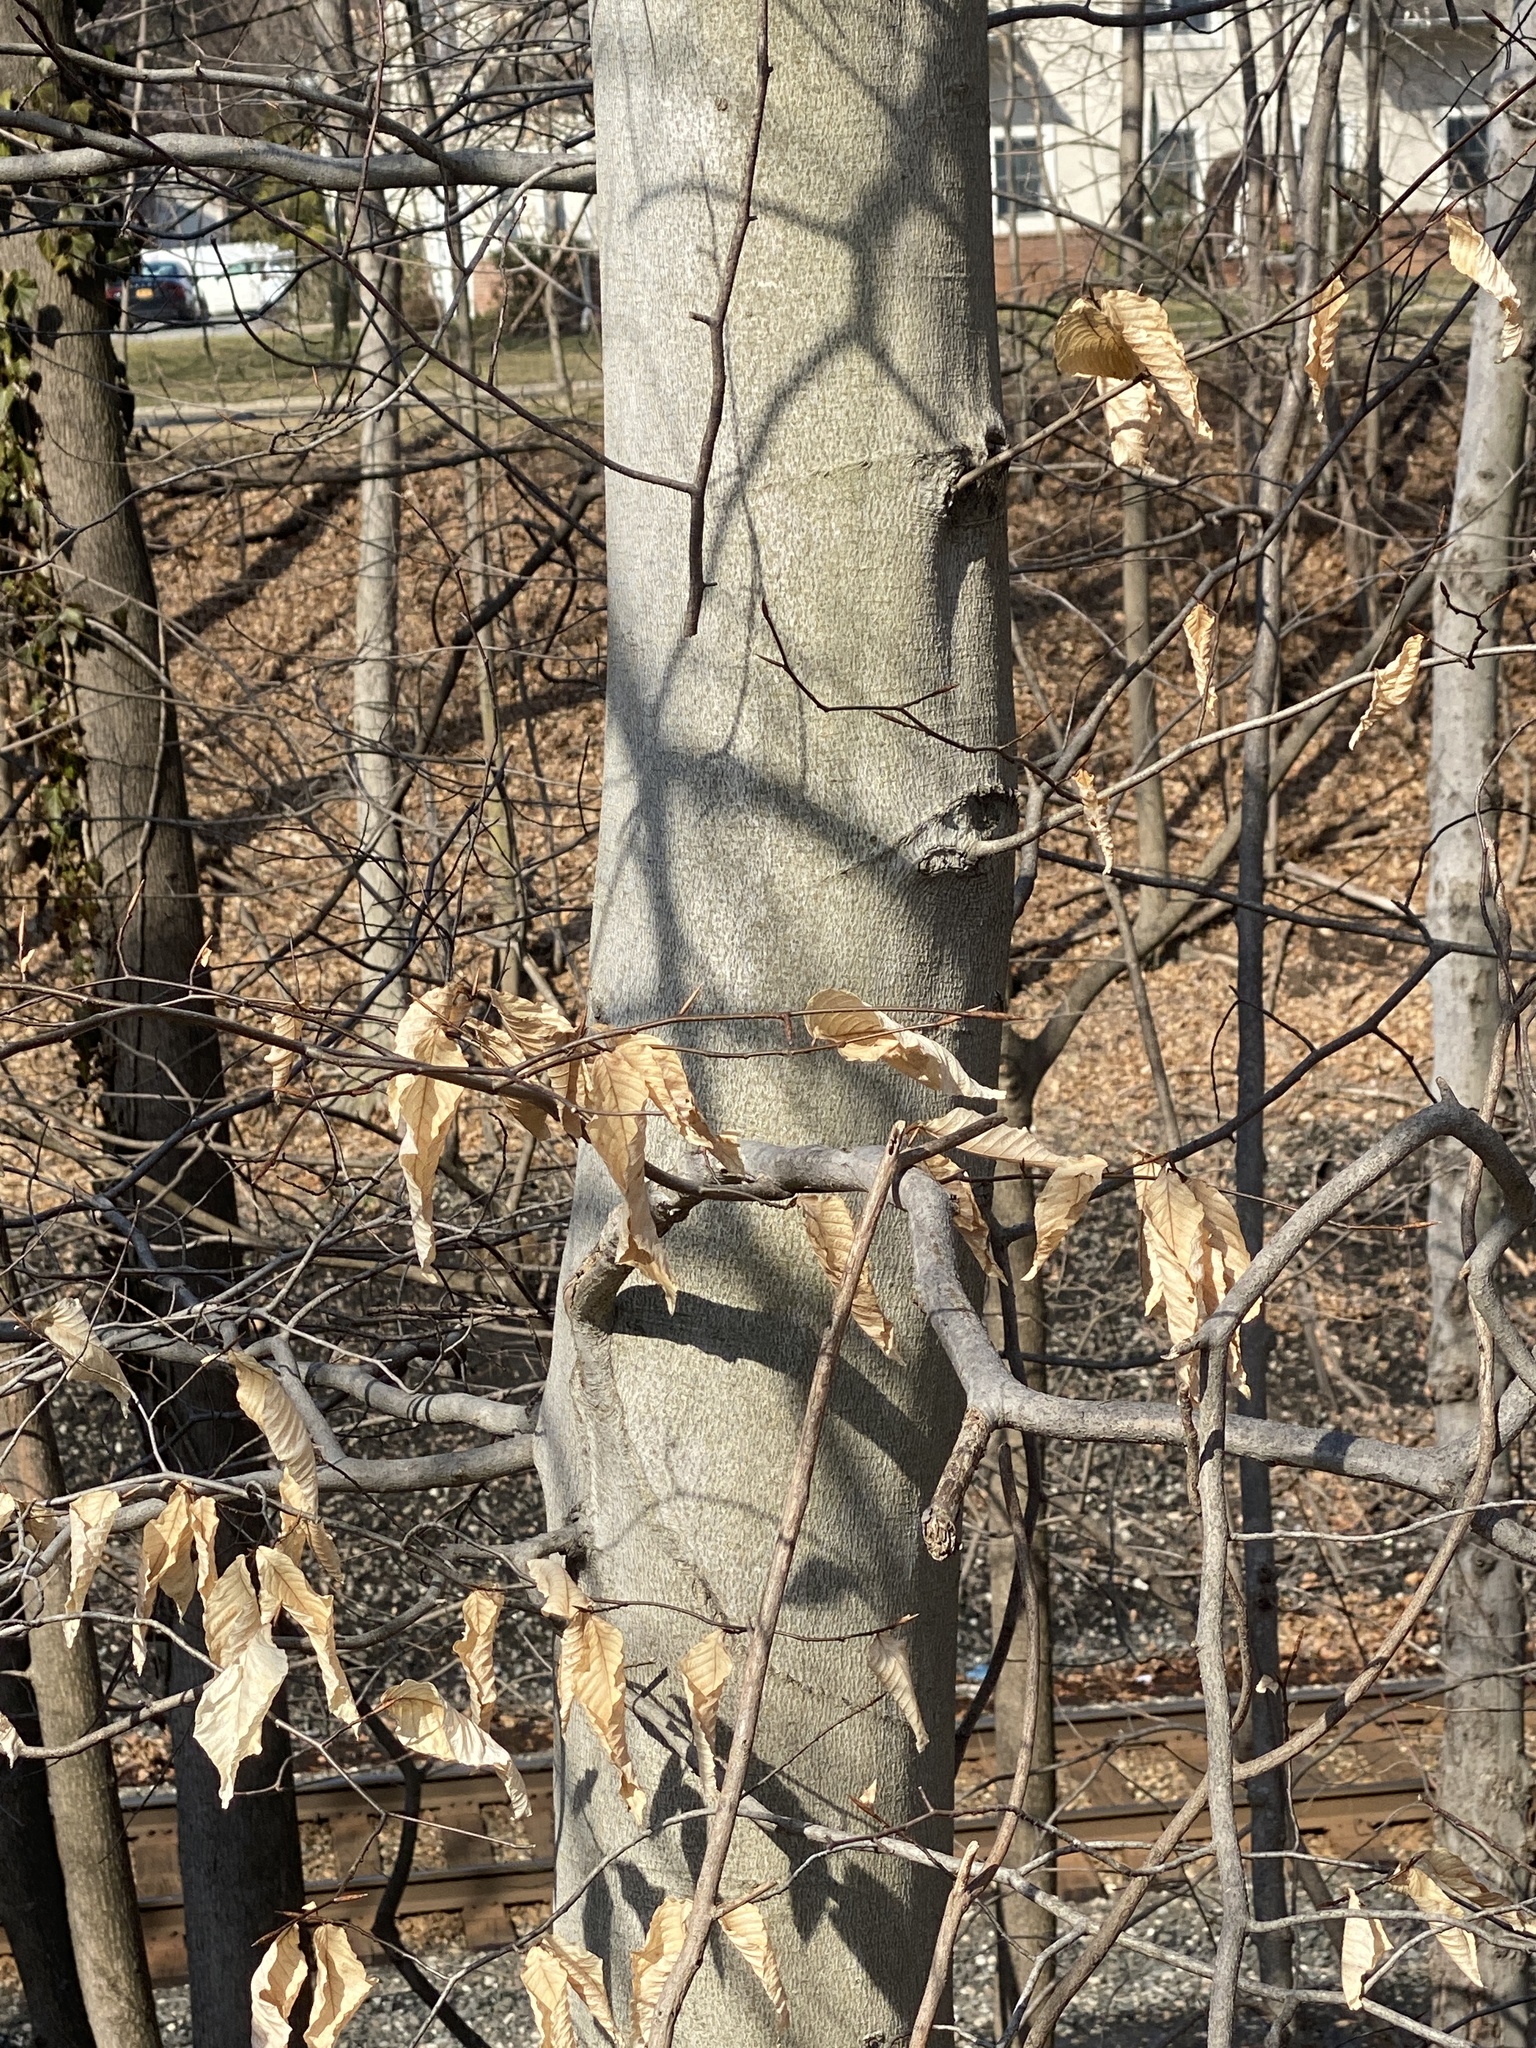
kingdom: Plantae
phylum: Tracheophyta
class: Magnoliopsida
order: Fagales
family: Fagaceae
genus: Fagus
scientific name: Fagus grandifolia
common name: American beech
